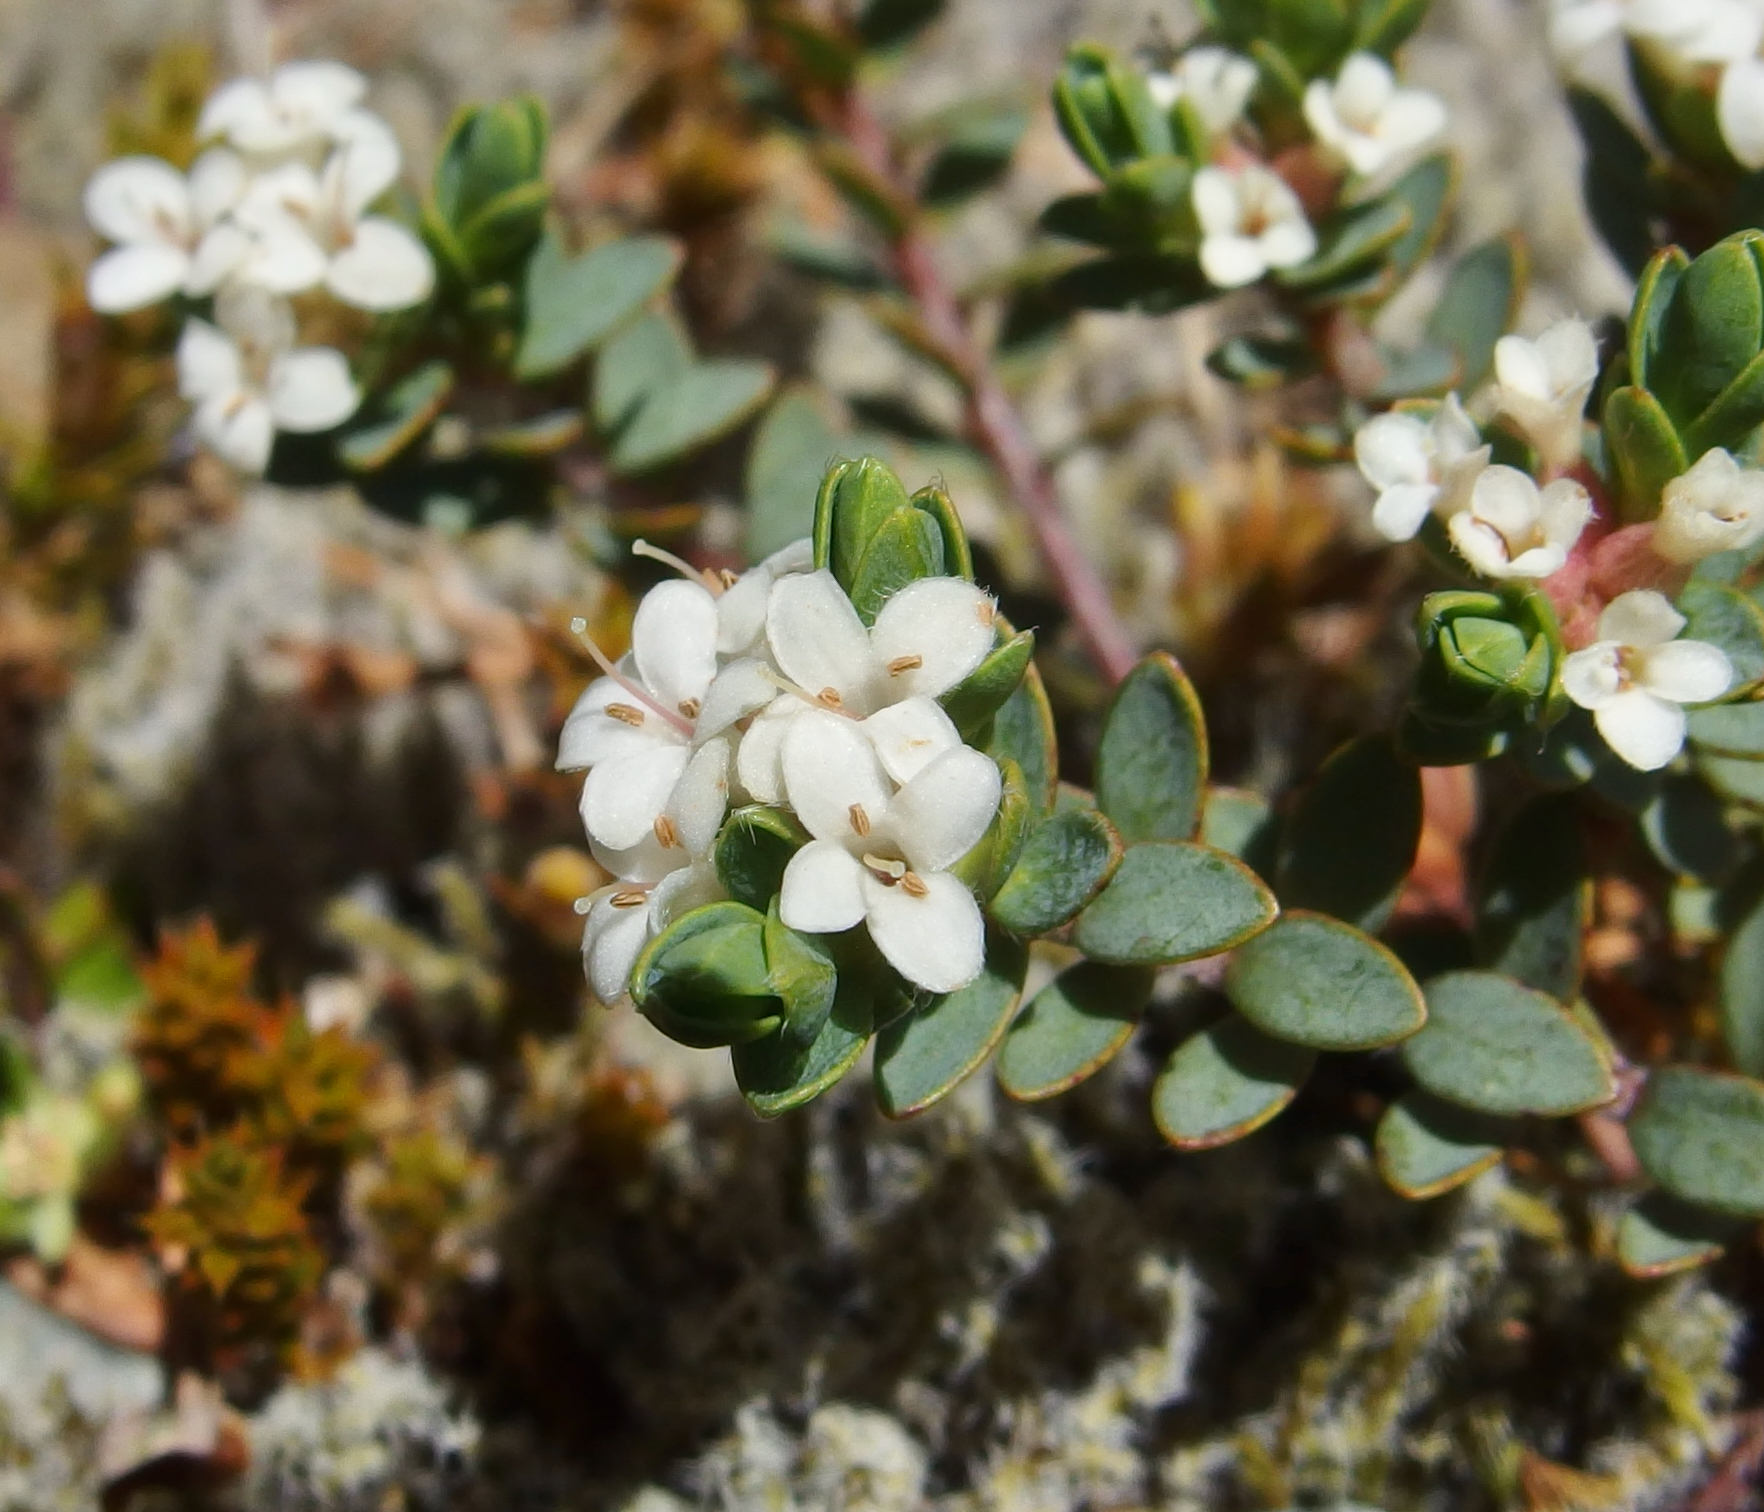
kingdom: Plantae
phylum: Tracheophyta
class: Magnoliopsida
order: Malvales
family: Thymelaeaceae
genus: Pimelea
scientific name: Pimelea oreophila
